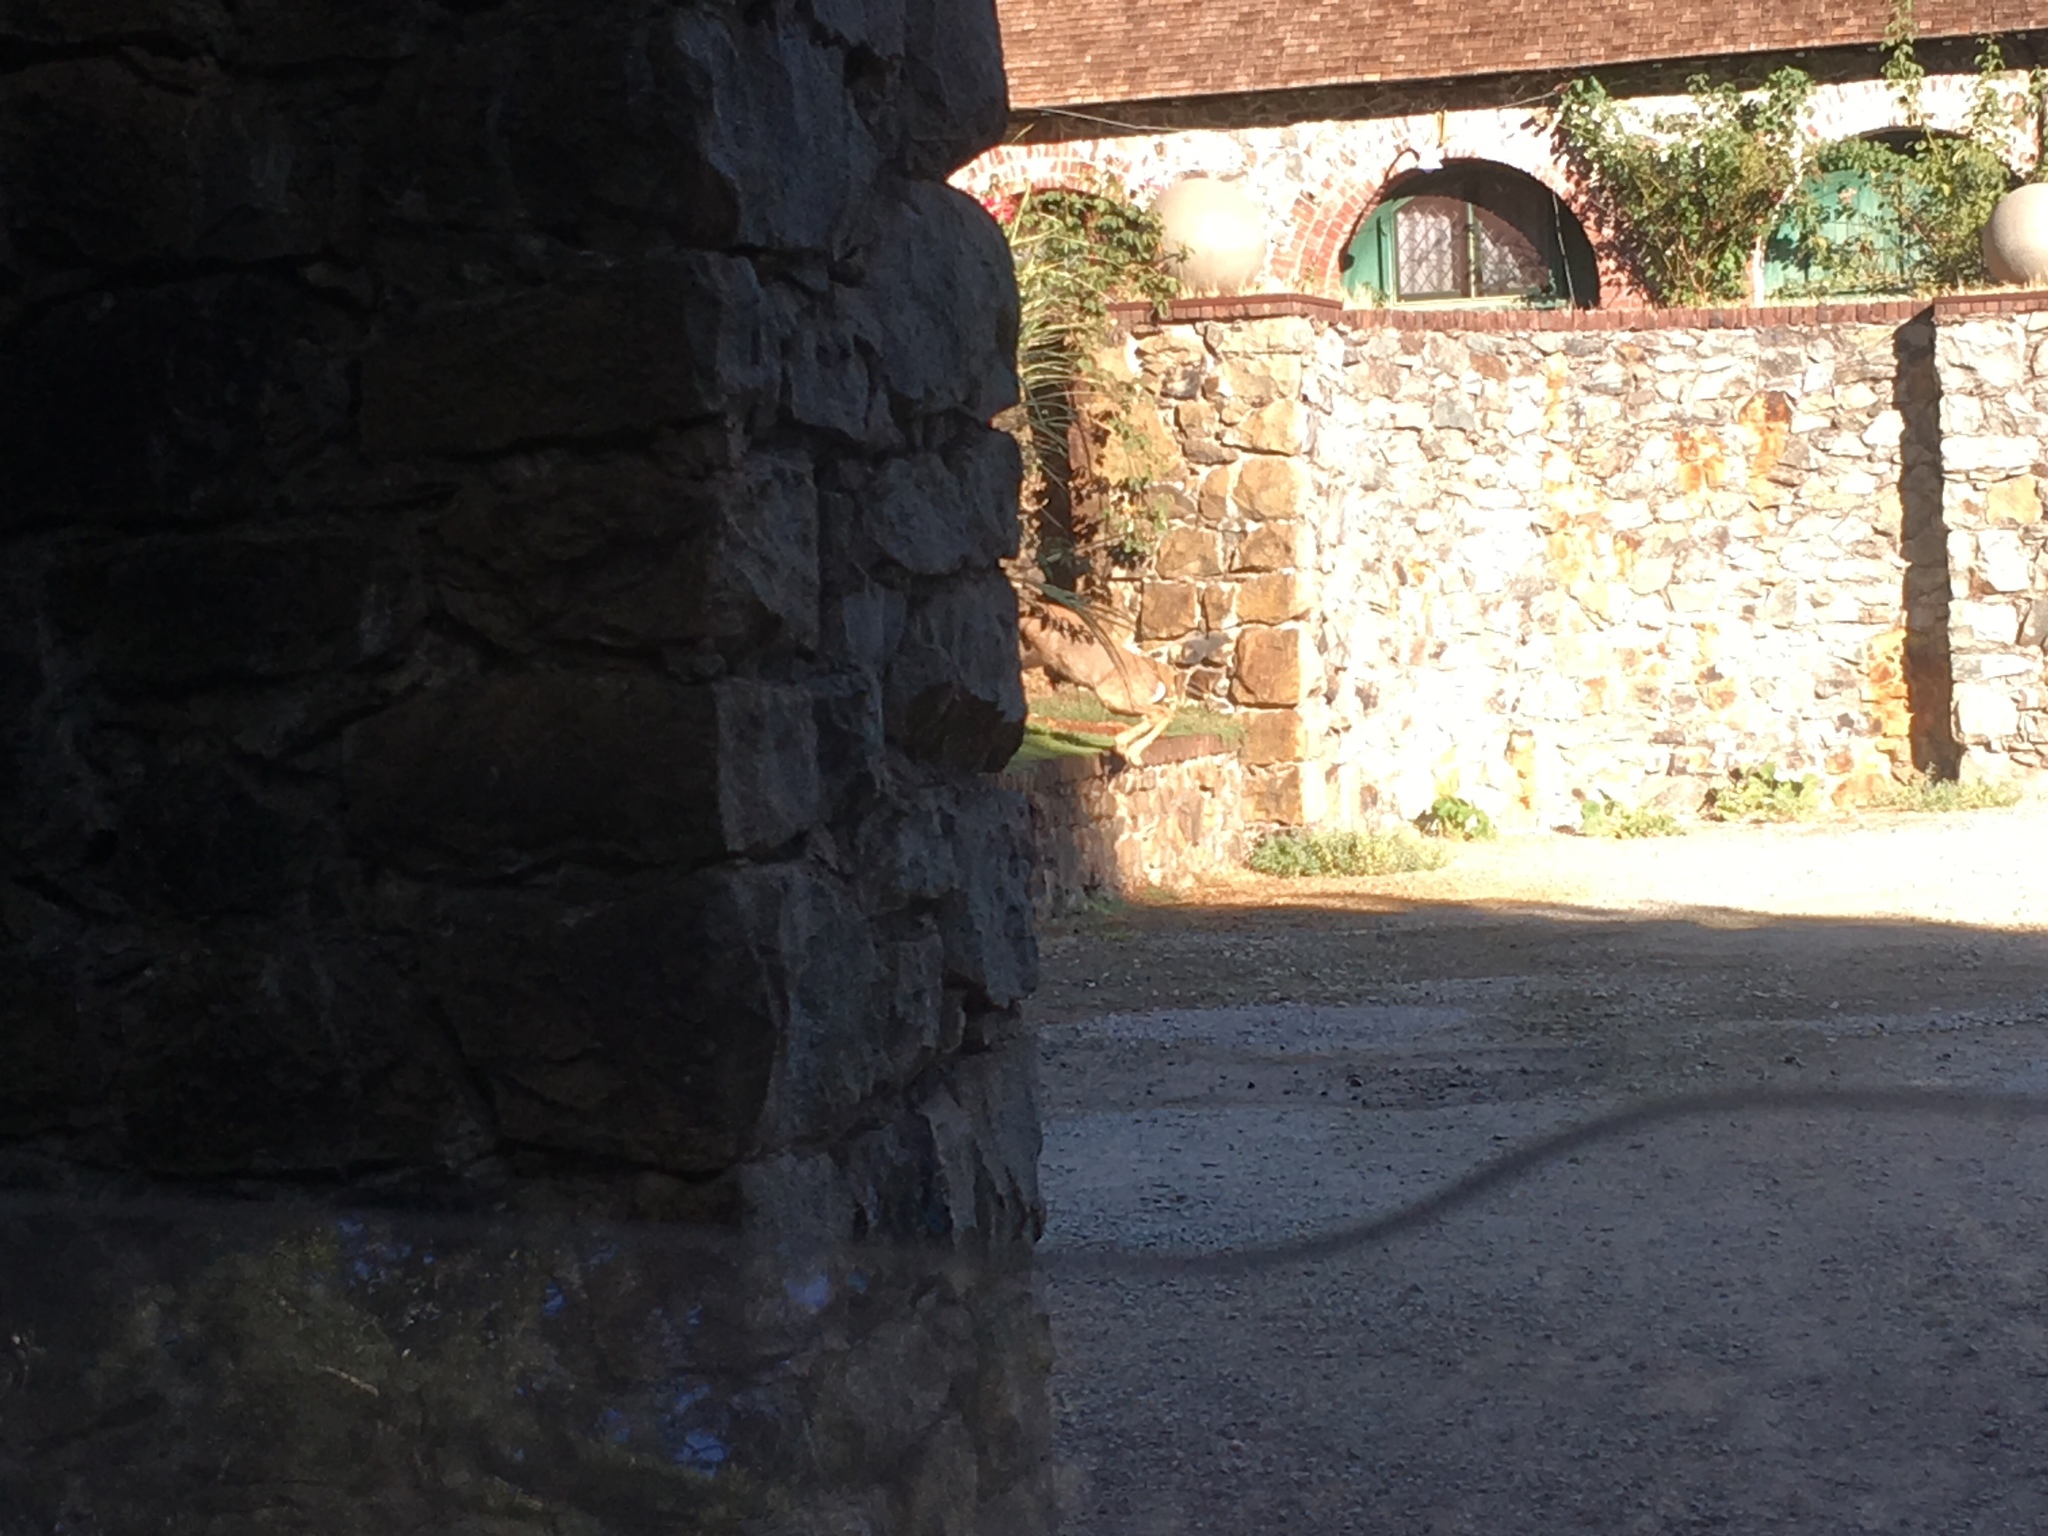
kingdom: Animalia
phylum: Chordata
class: Mammalia
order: Artiodactyla
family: Cervidae
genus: Odocoileus
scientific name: Odocoileus hemionus
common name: Mule deer
